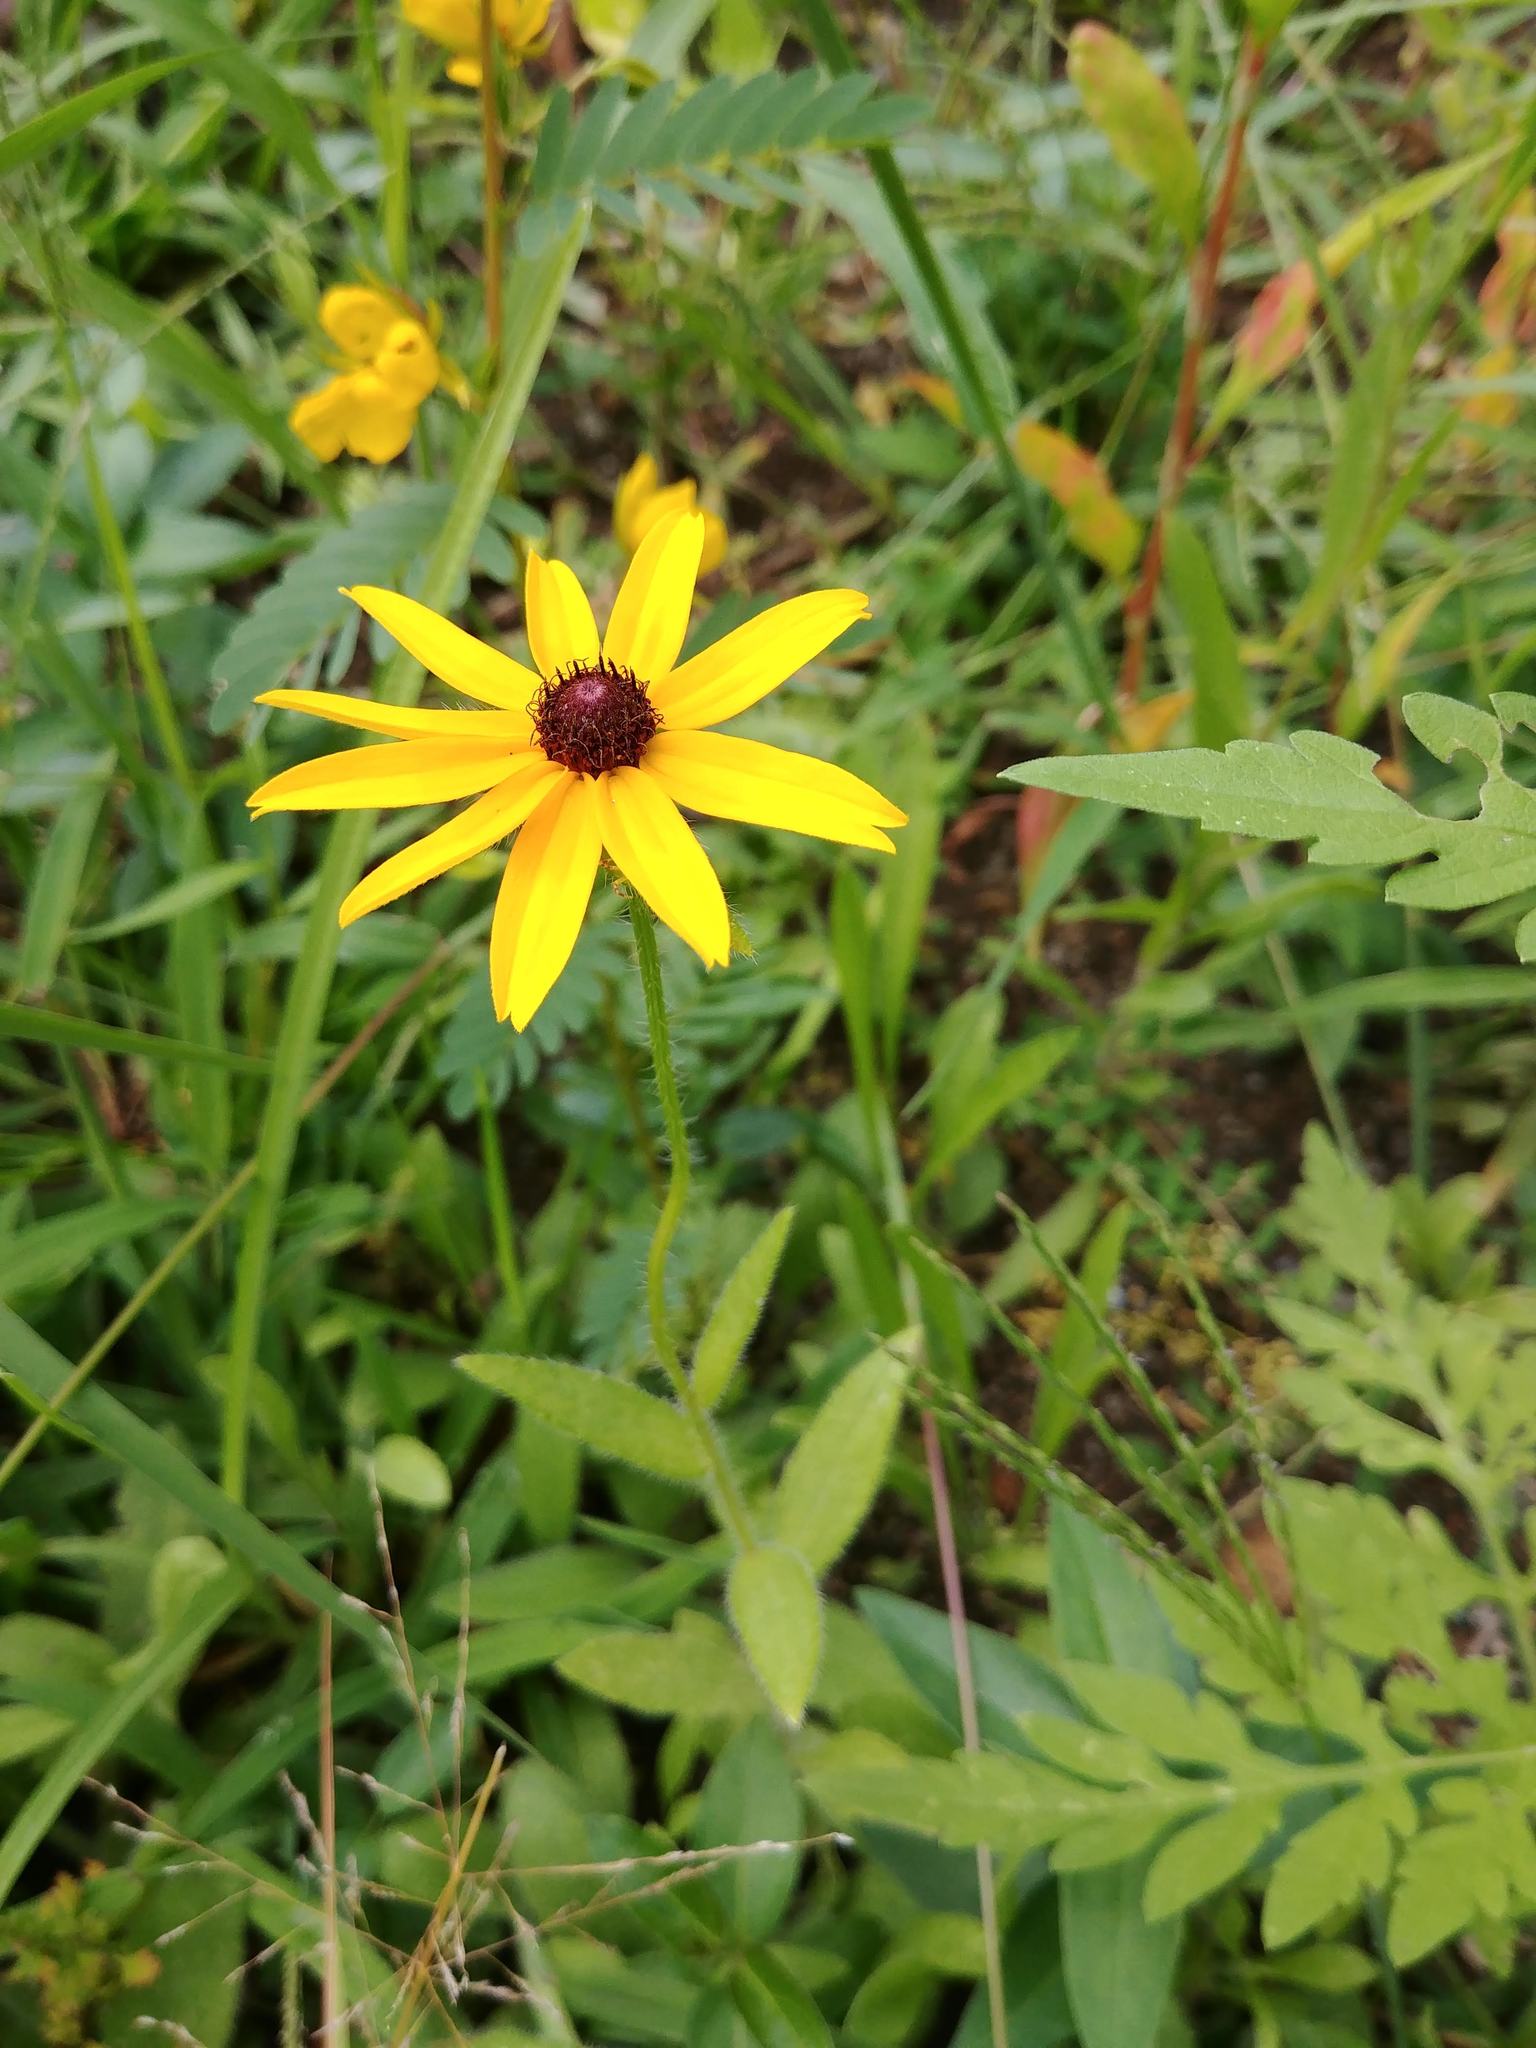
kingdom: Plantae
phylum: Tracheophyta
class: Magnoliopsida
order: Asterales
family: Asteraceae
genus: Rudbeckia
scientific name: Rudbeckia hirta
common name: Black-eyed-susan
